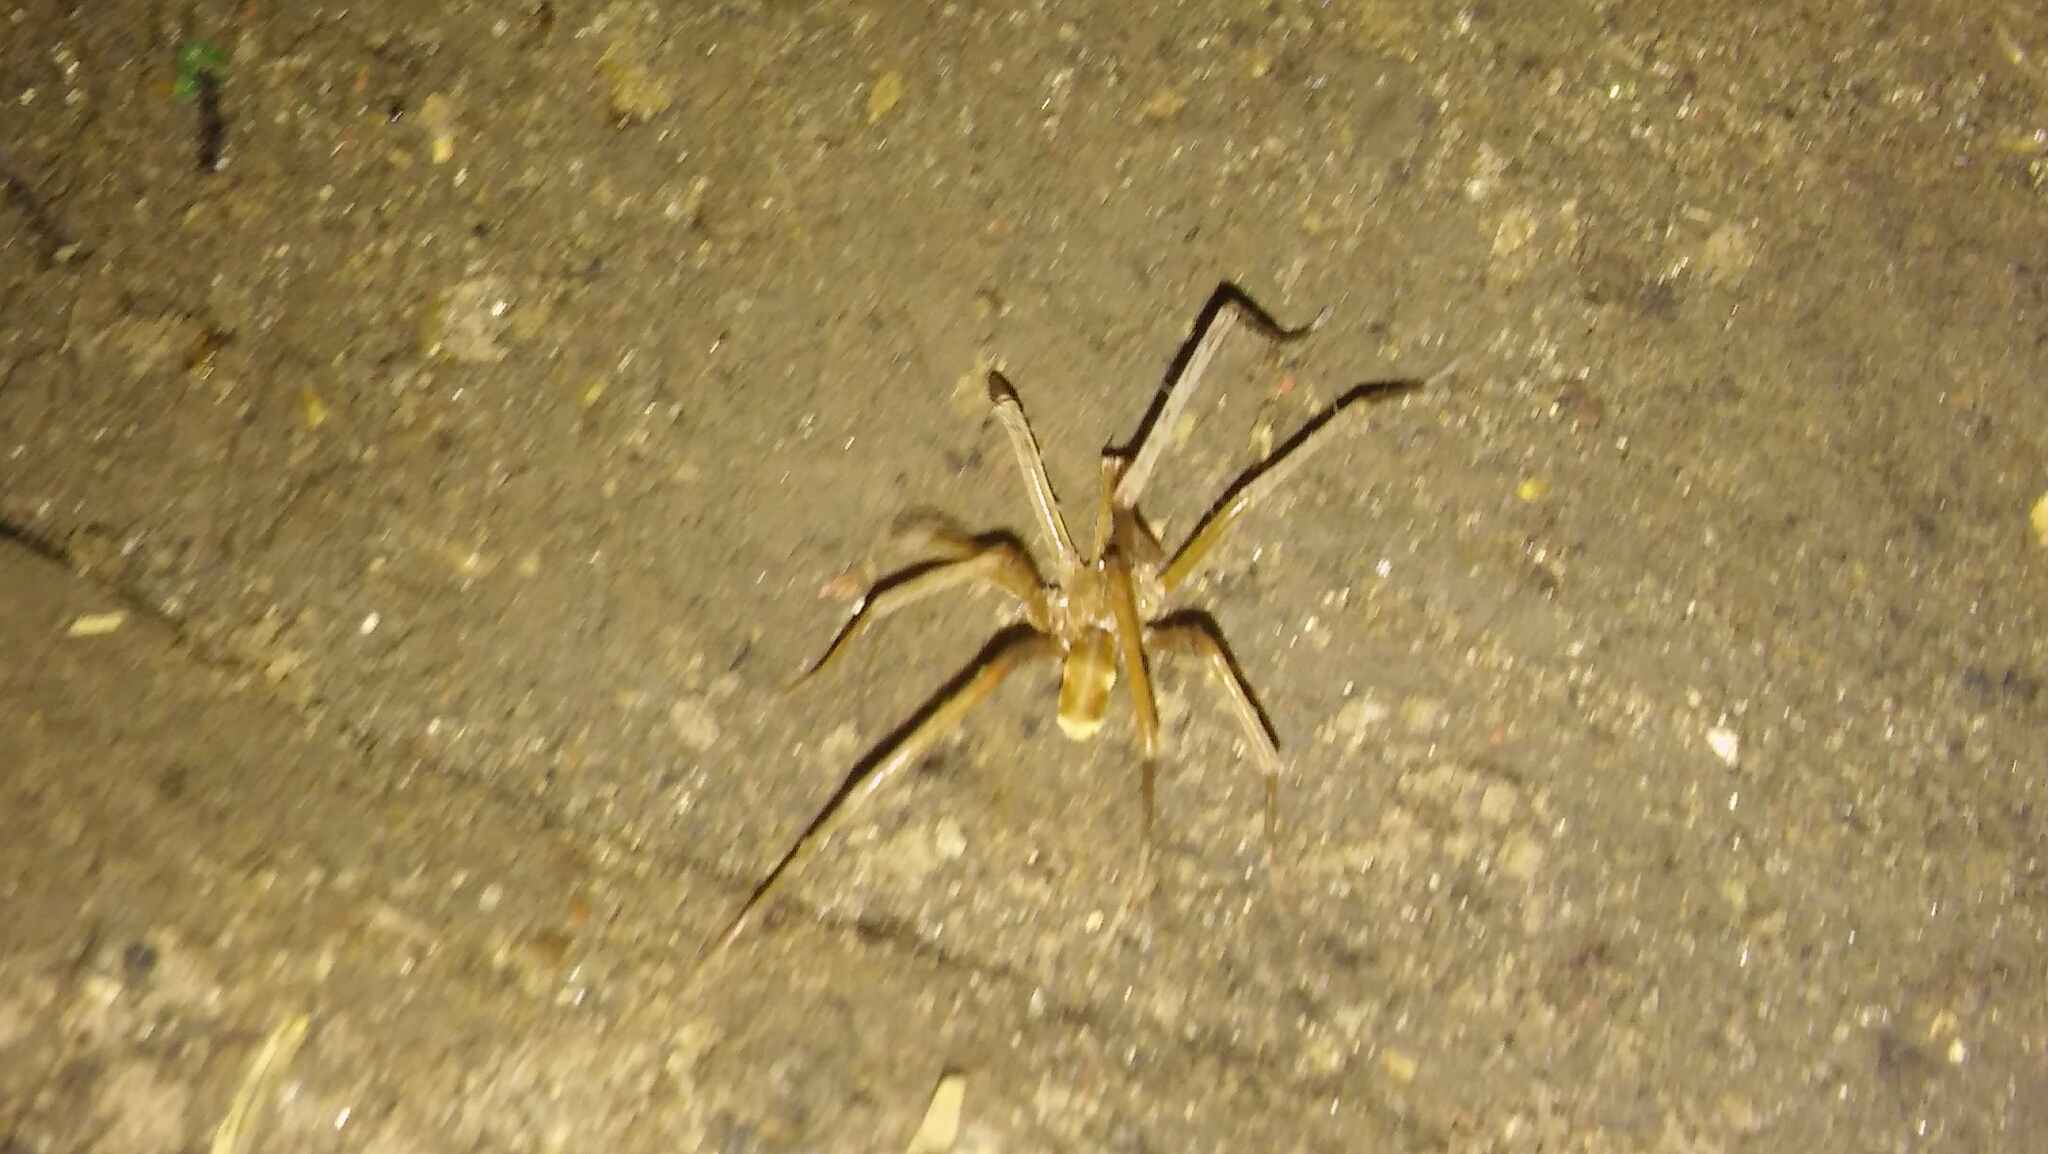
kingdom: Animalia
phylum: Arthropoda
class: Arachnida
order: Araneae
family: Filistatidae
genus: Kukulcania
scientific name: Kukulcania hibernalis
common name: Crevice weaver
